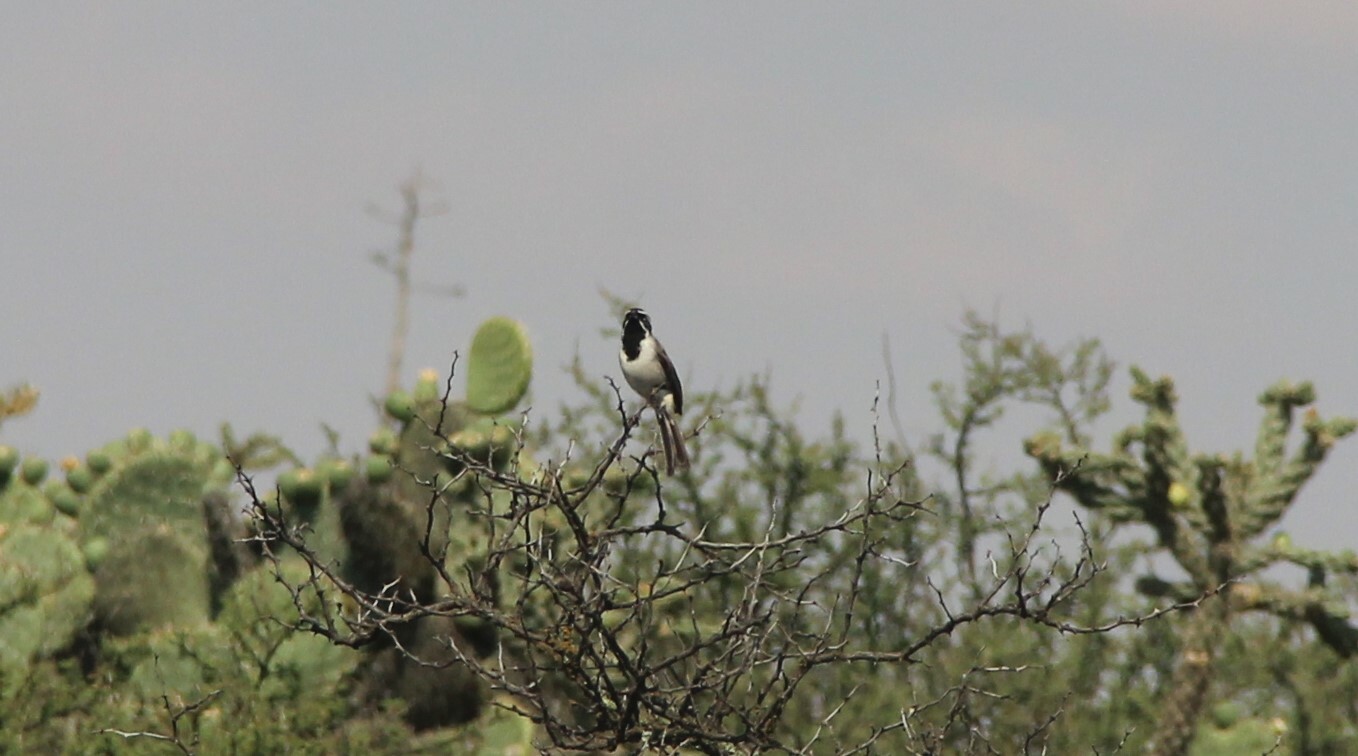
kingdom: Animalia
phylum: Chordata
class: Aves
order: Passeriformes
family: Passerellidae
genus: Amphispiza
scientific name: Amphispiza bilineata
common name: Black-throated sparrow
